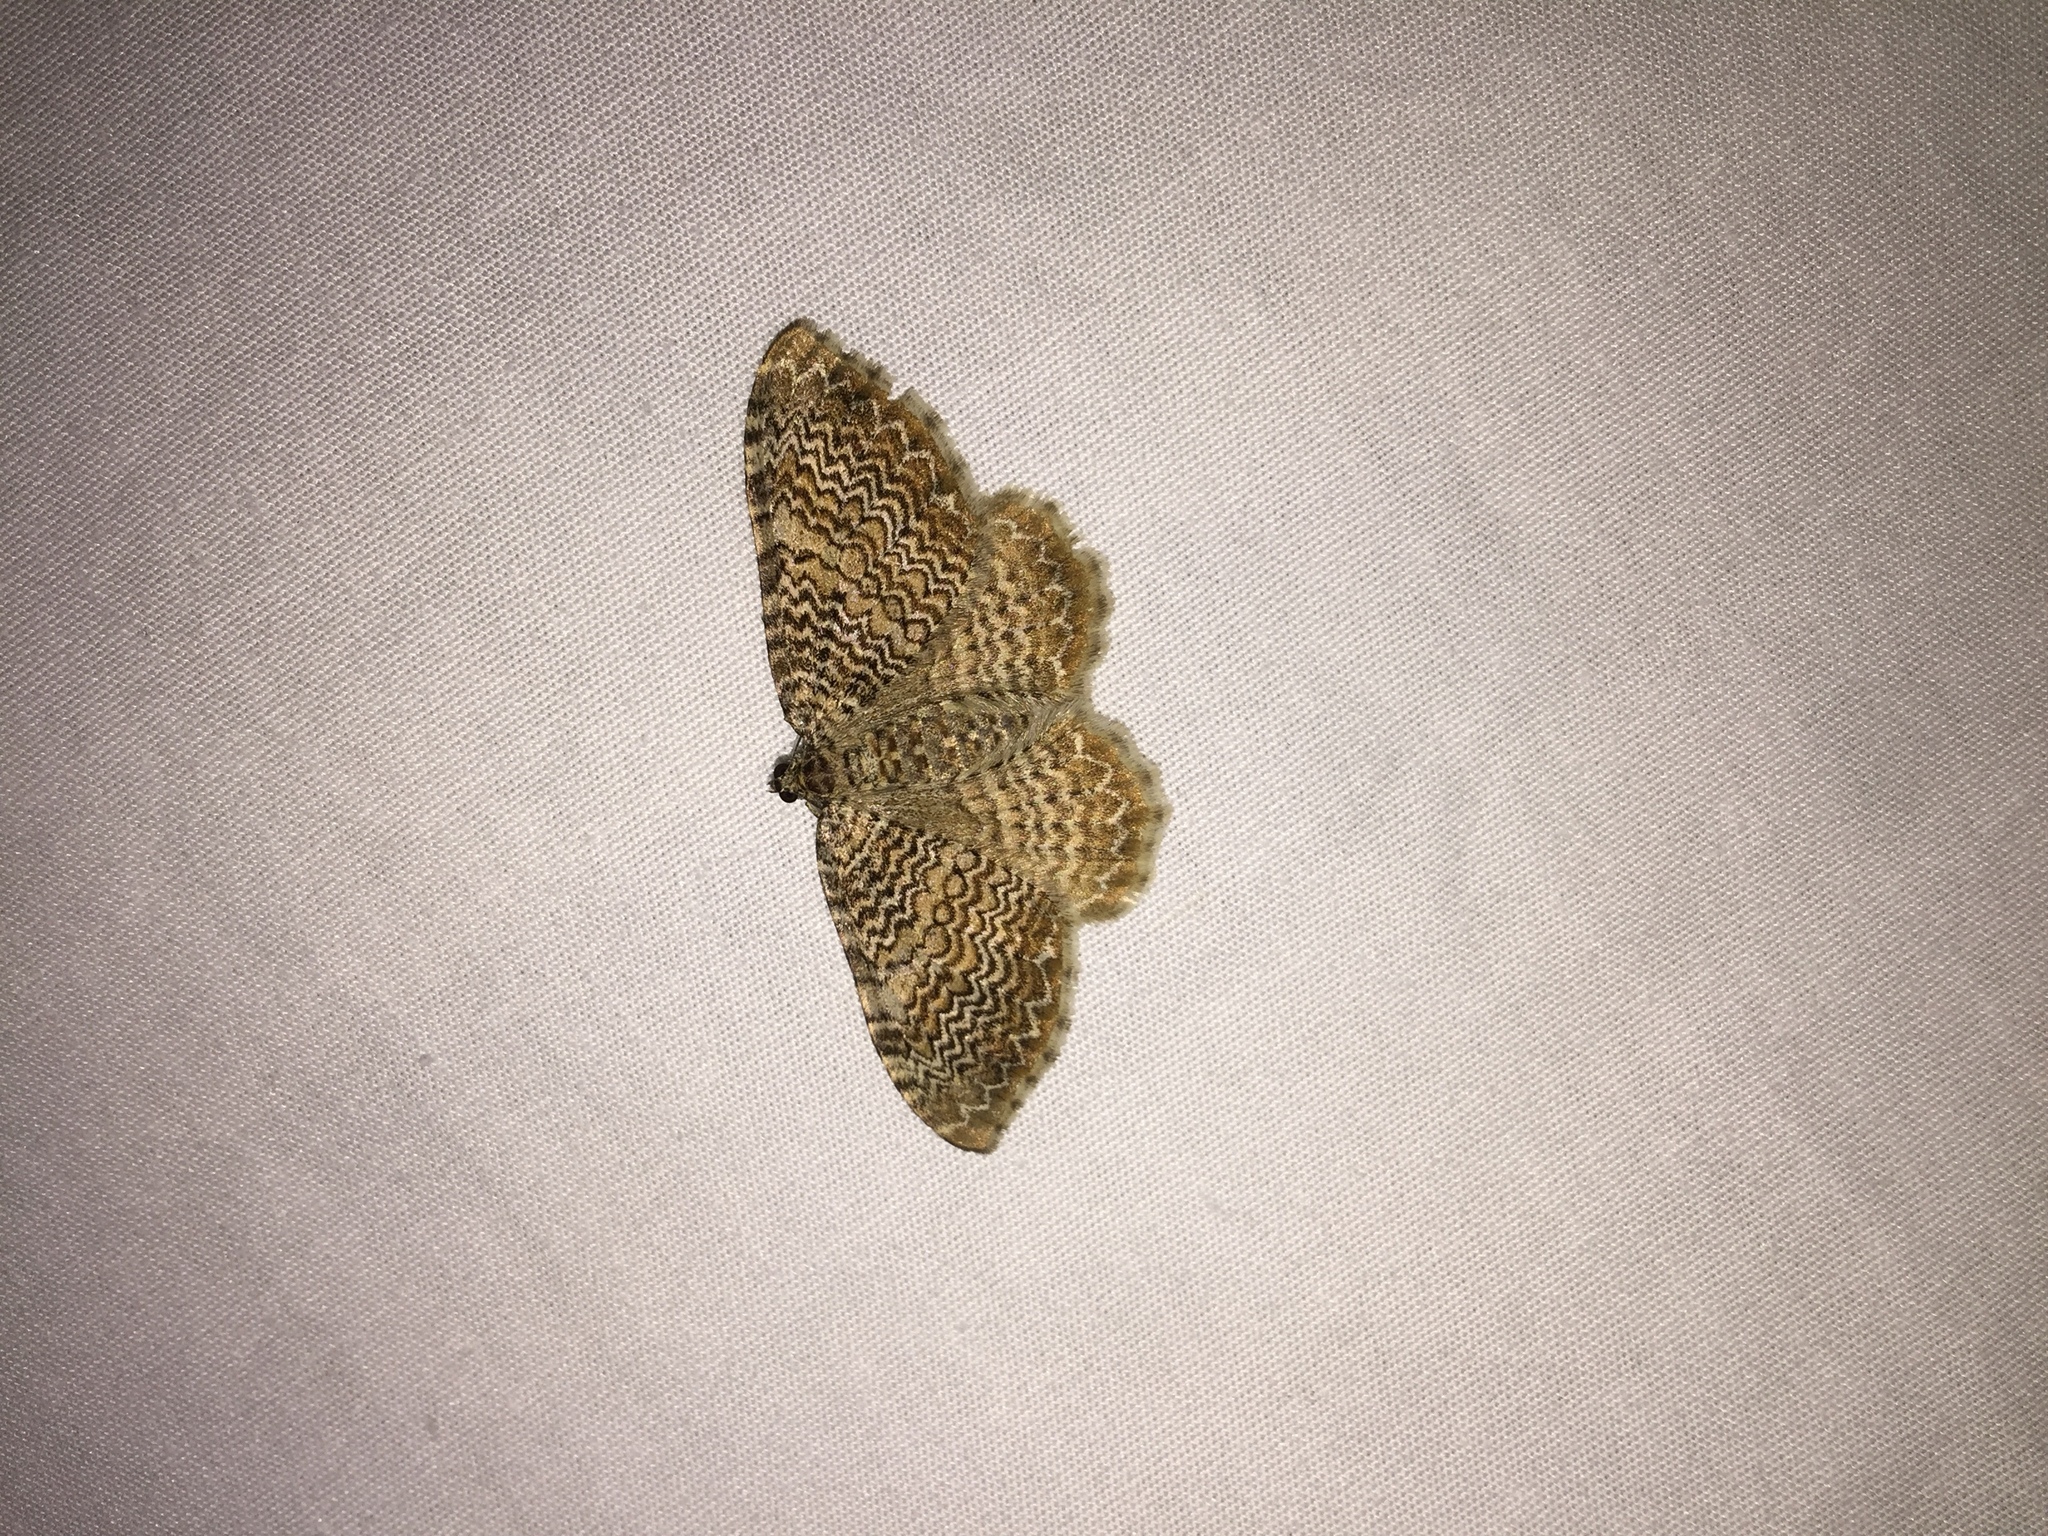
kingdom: Animalia
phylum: Arthropoda
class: Insecta
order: Lepidoptera
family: Geometridae
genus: Rheumaptera
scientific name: Rheumaptera
